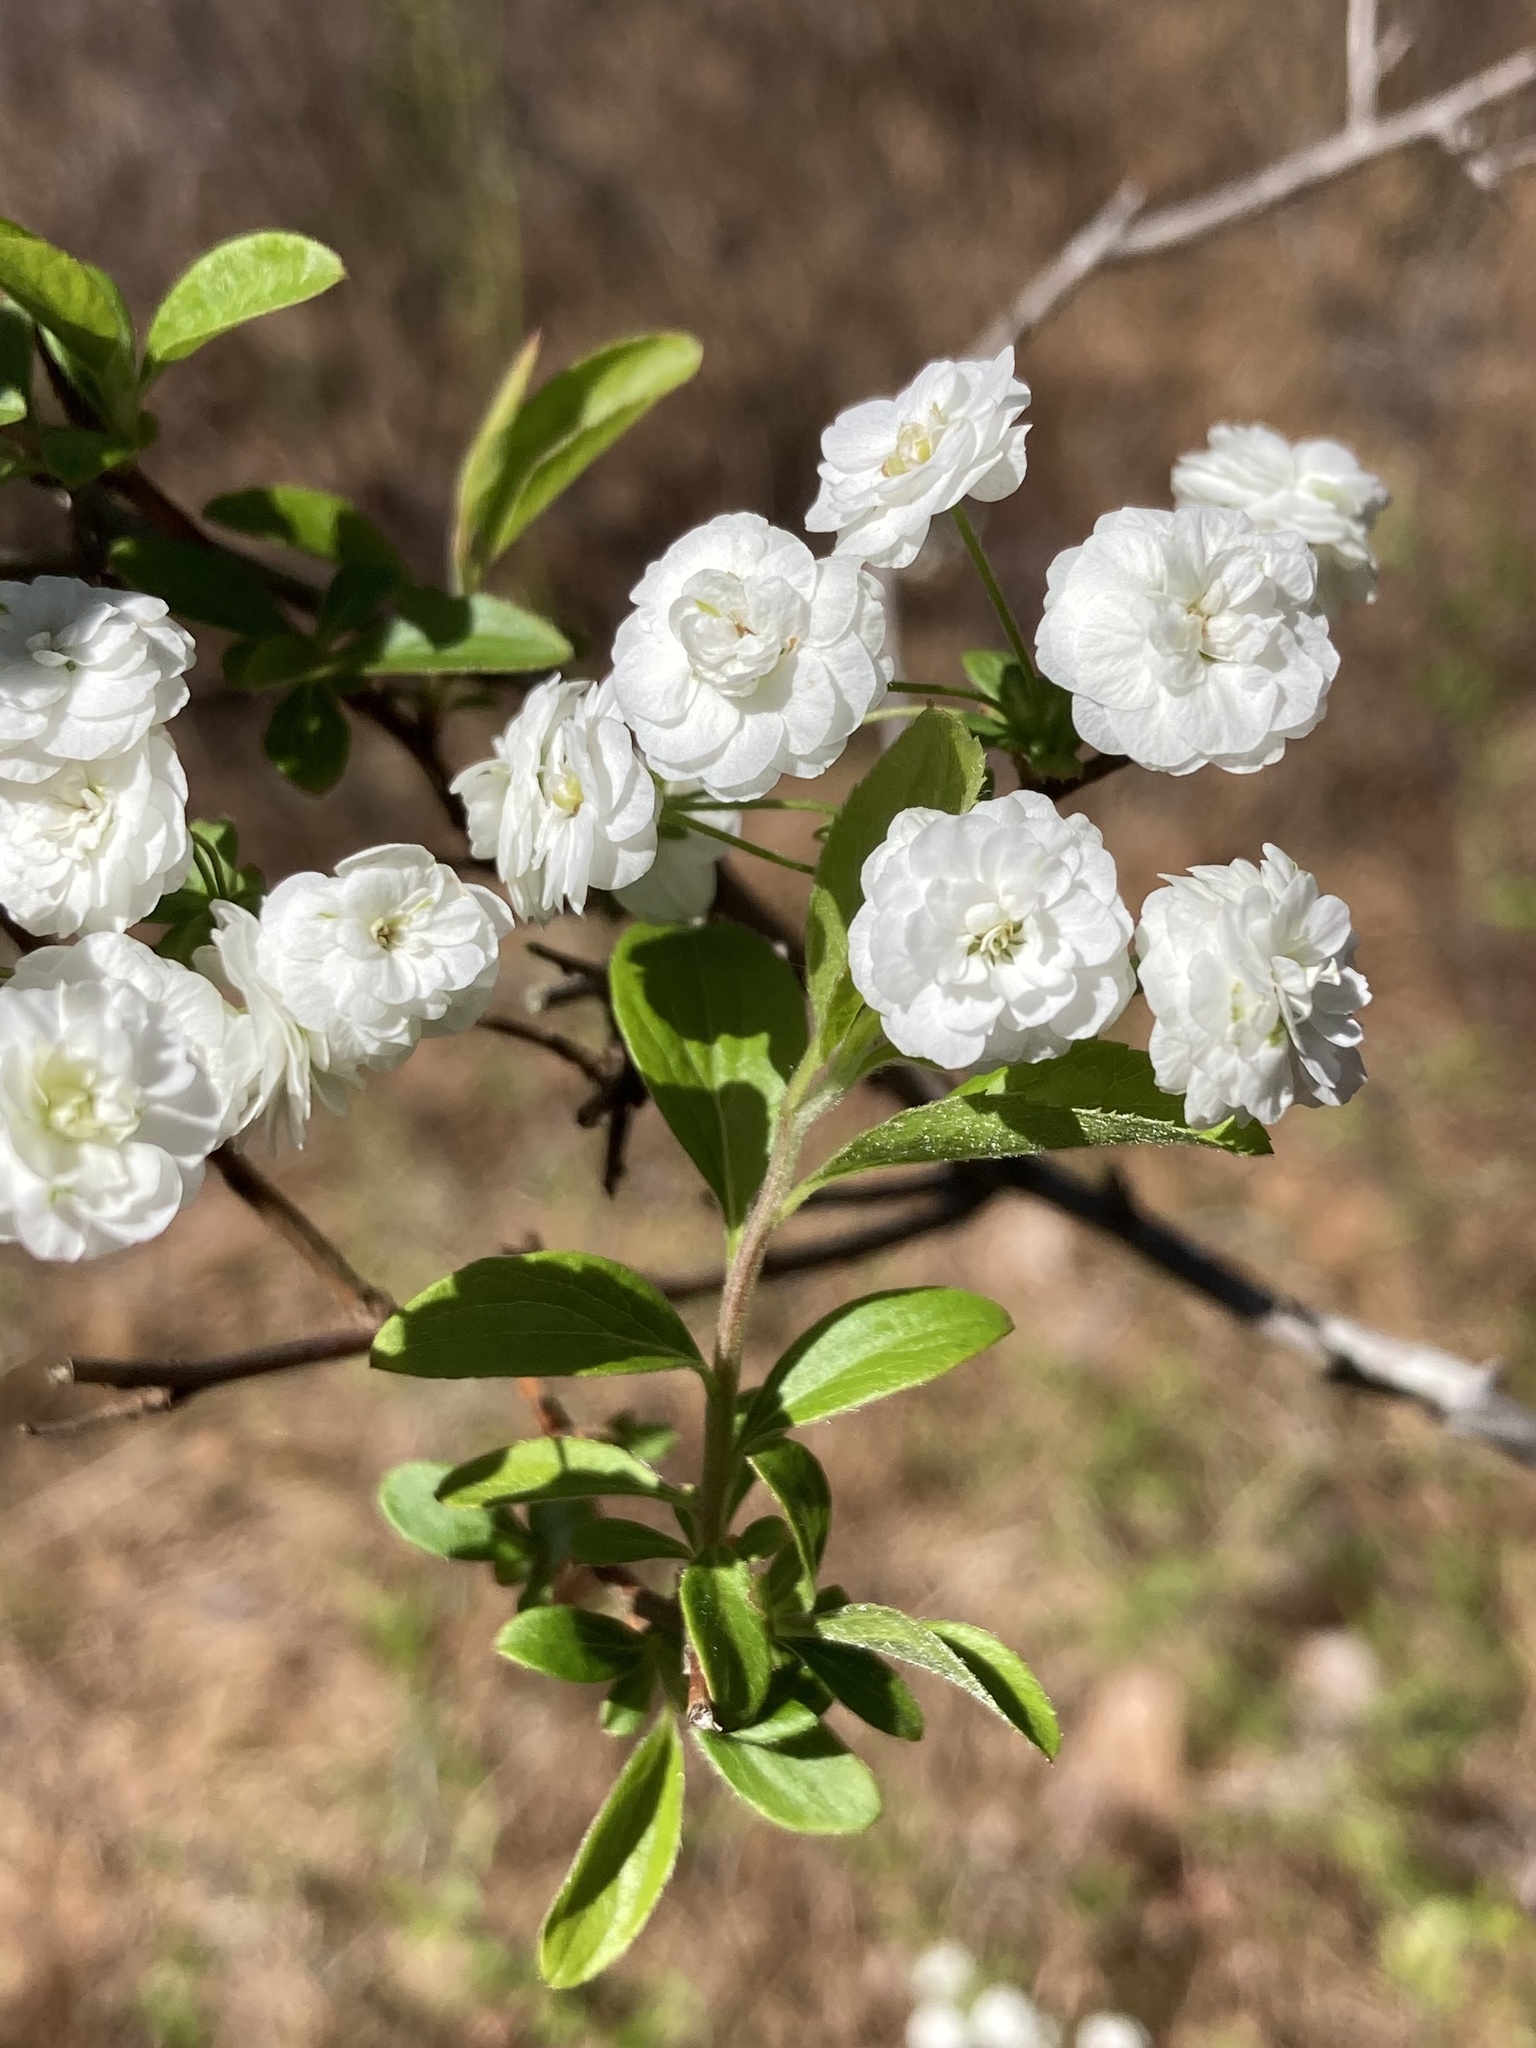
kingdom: Plantae
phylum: Tracheophyta
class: Magnoliopsida
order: Rosales
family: Rosaceae
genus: Spiraea
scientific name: Spiraea prunifolia
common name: Bridal-wreath spiraea
